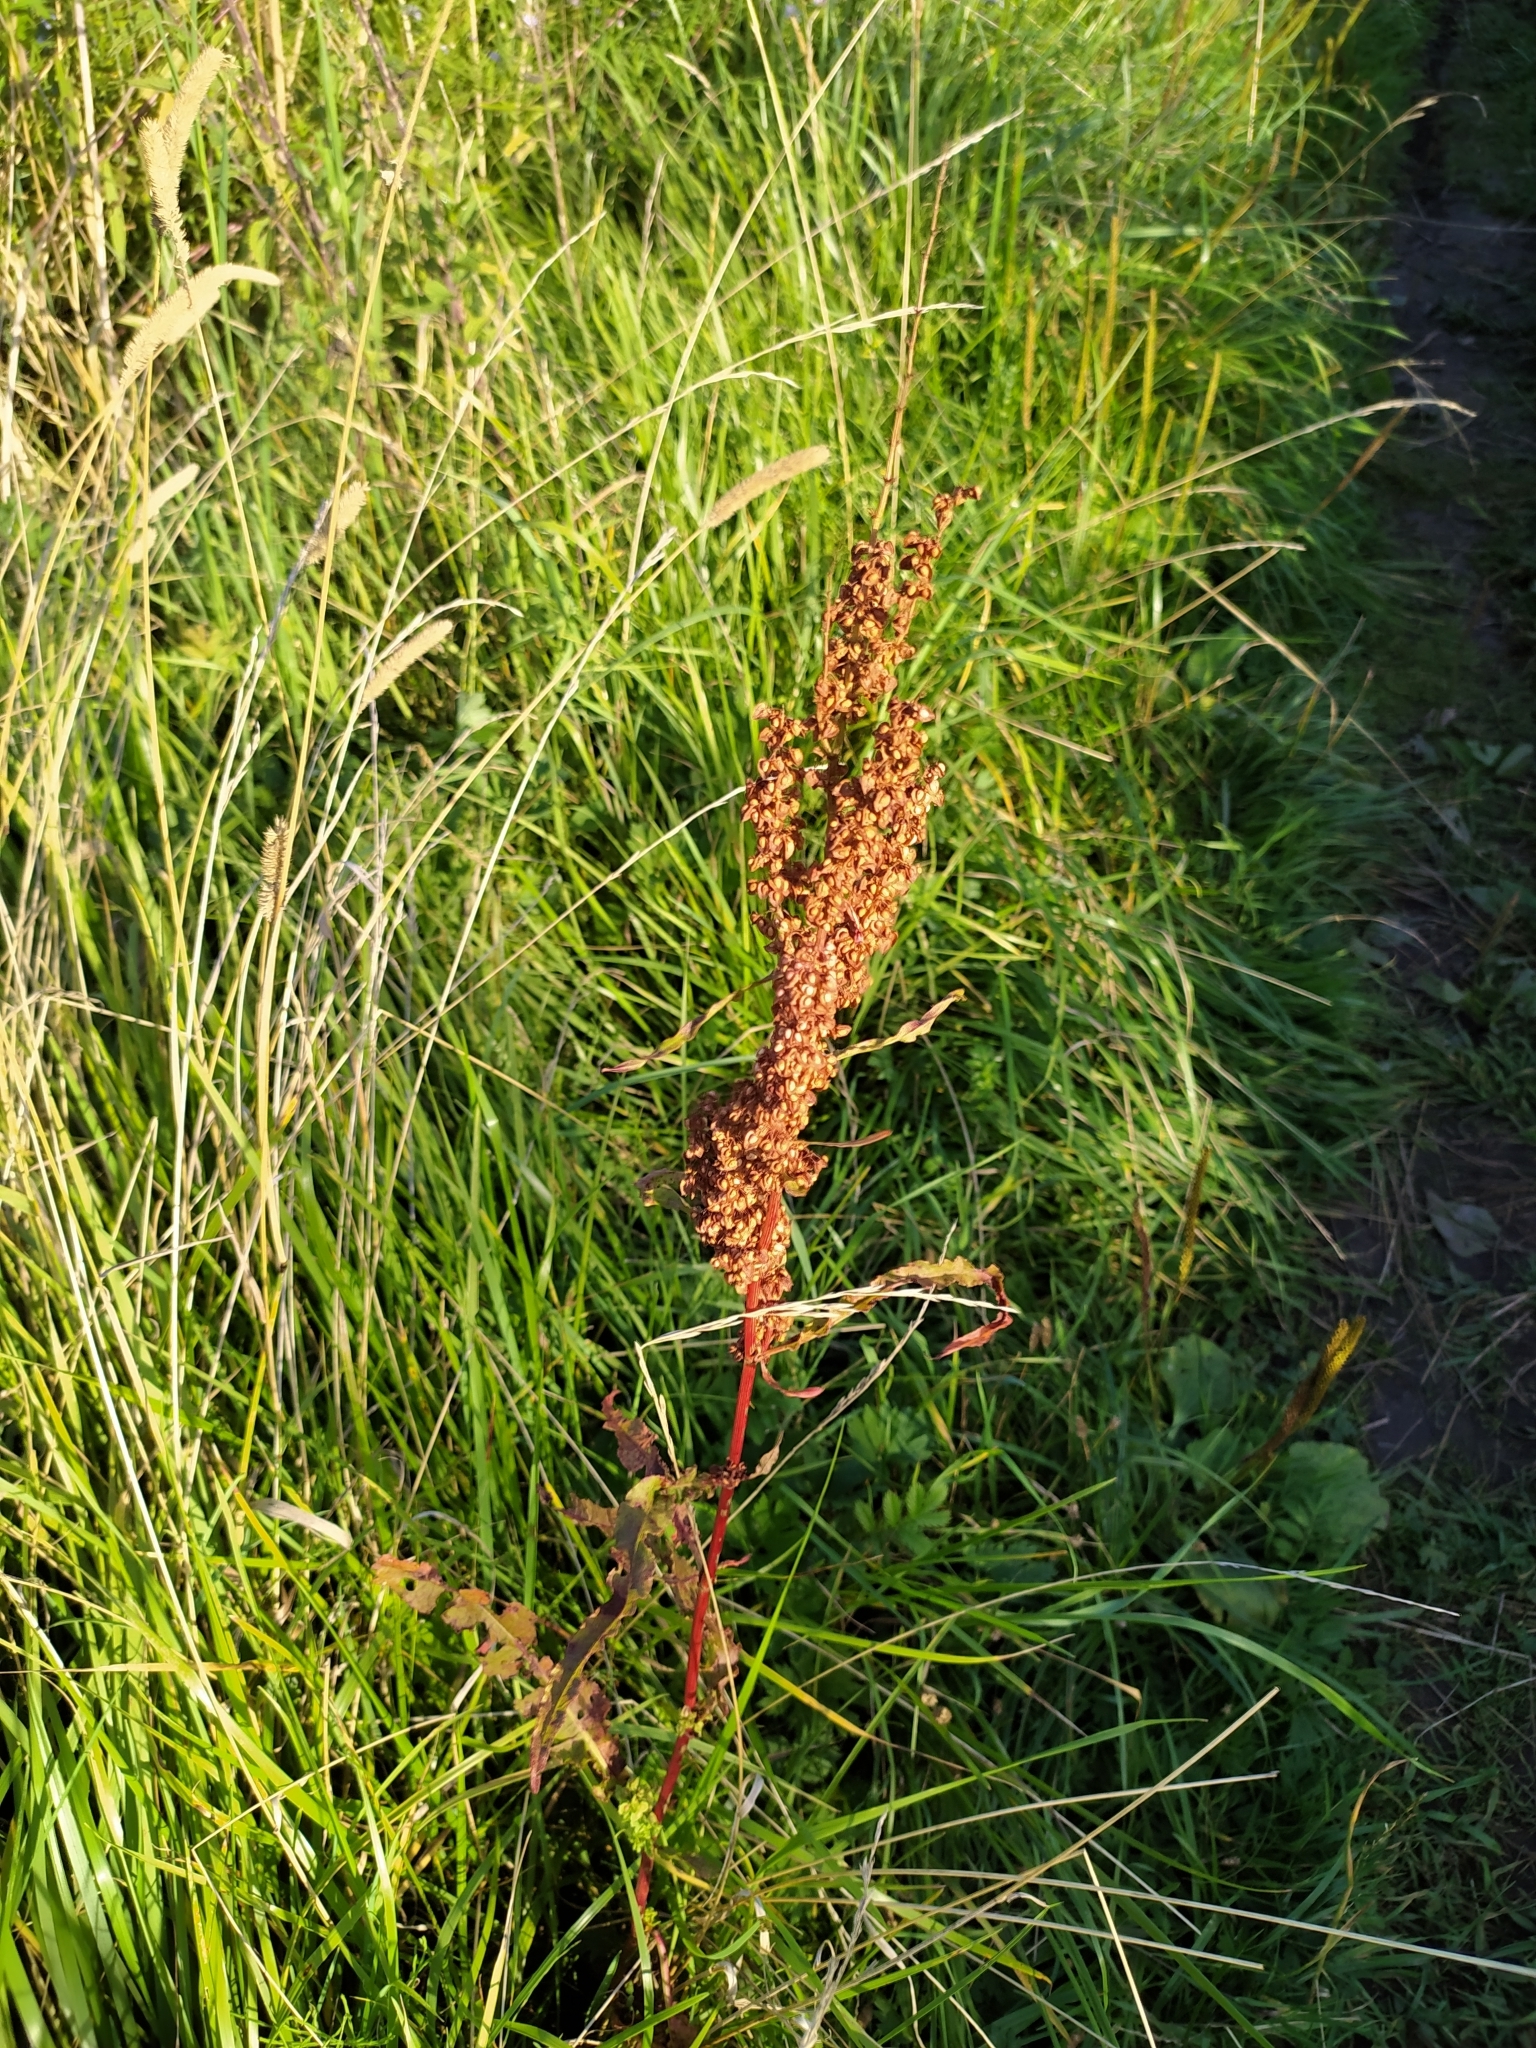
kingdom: Plantae
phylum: Tracheophyta
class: Magnoliopsida
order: Caryophyllales
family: Polygonaceae
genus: Rumex
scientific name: Rumex crispus
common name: Curled dock
